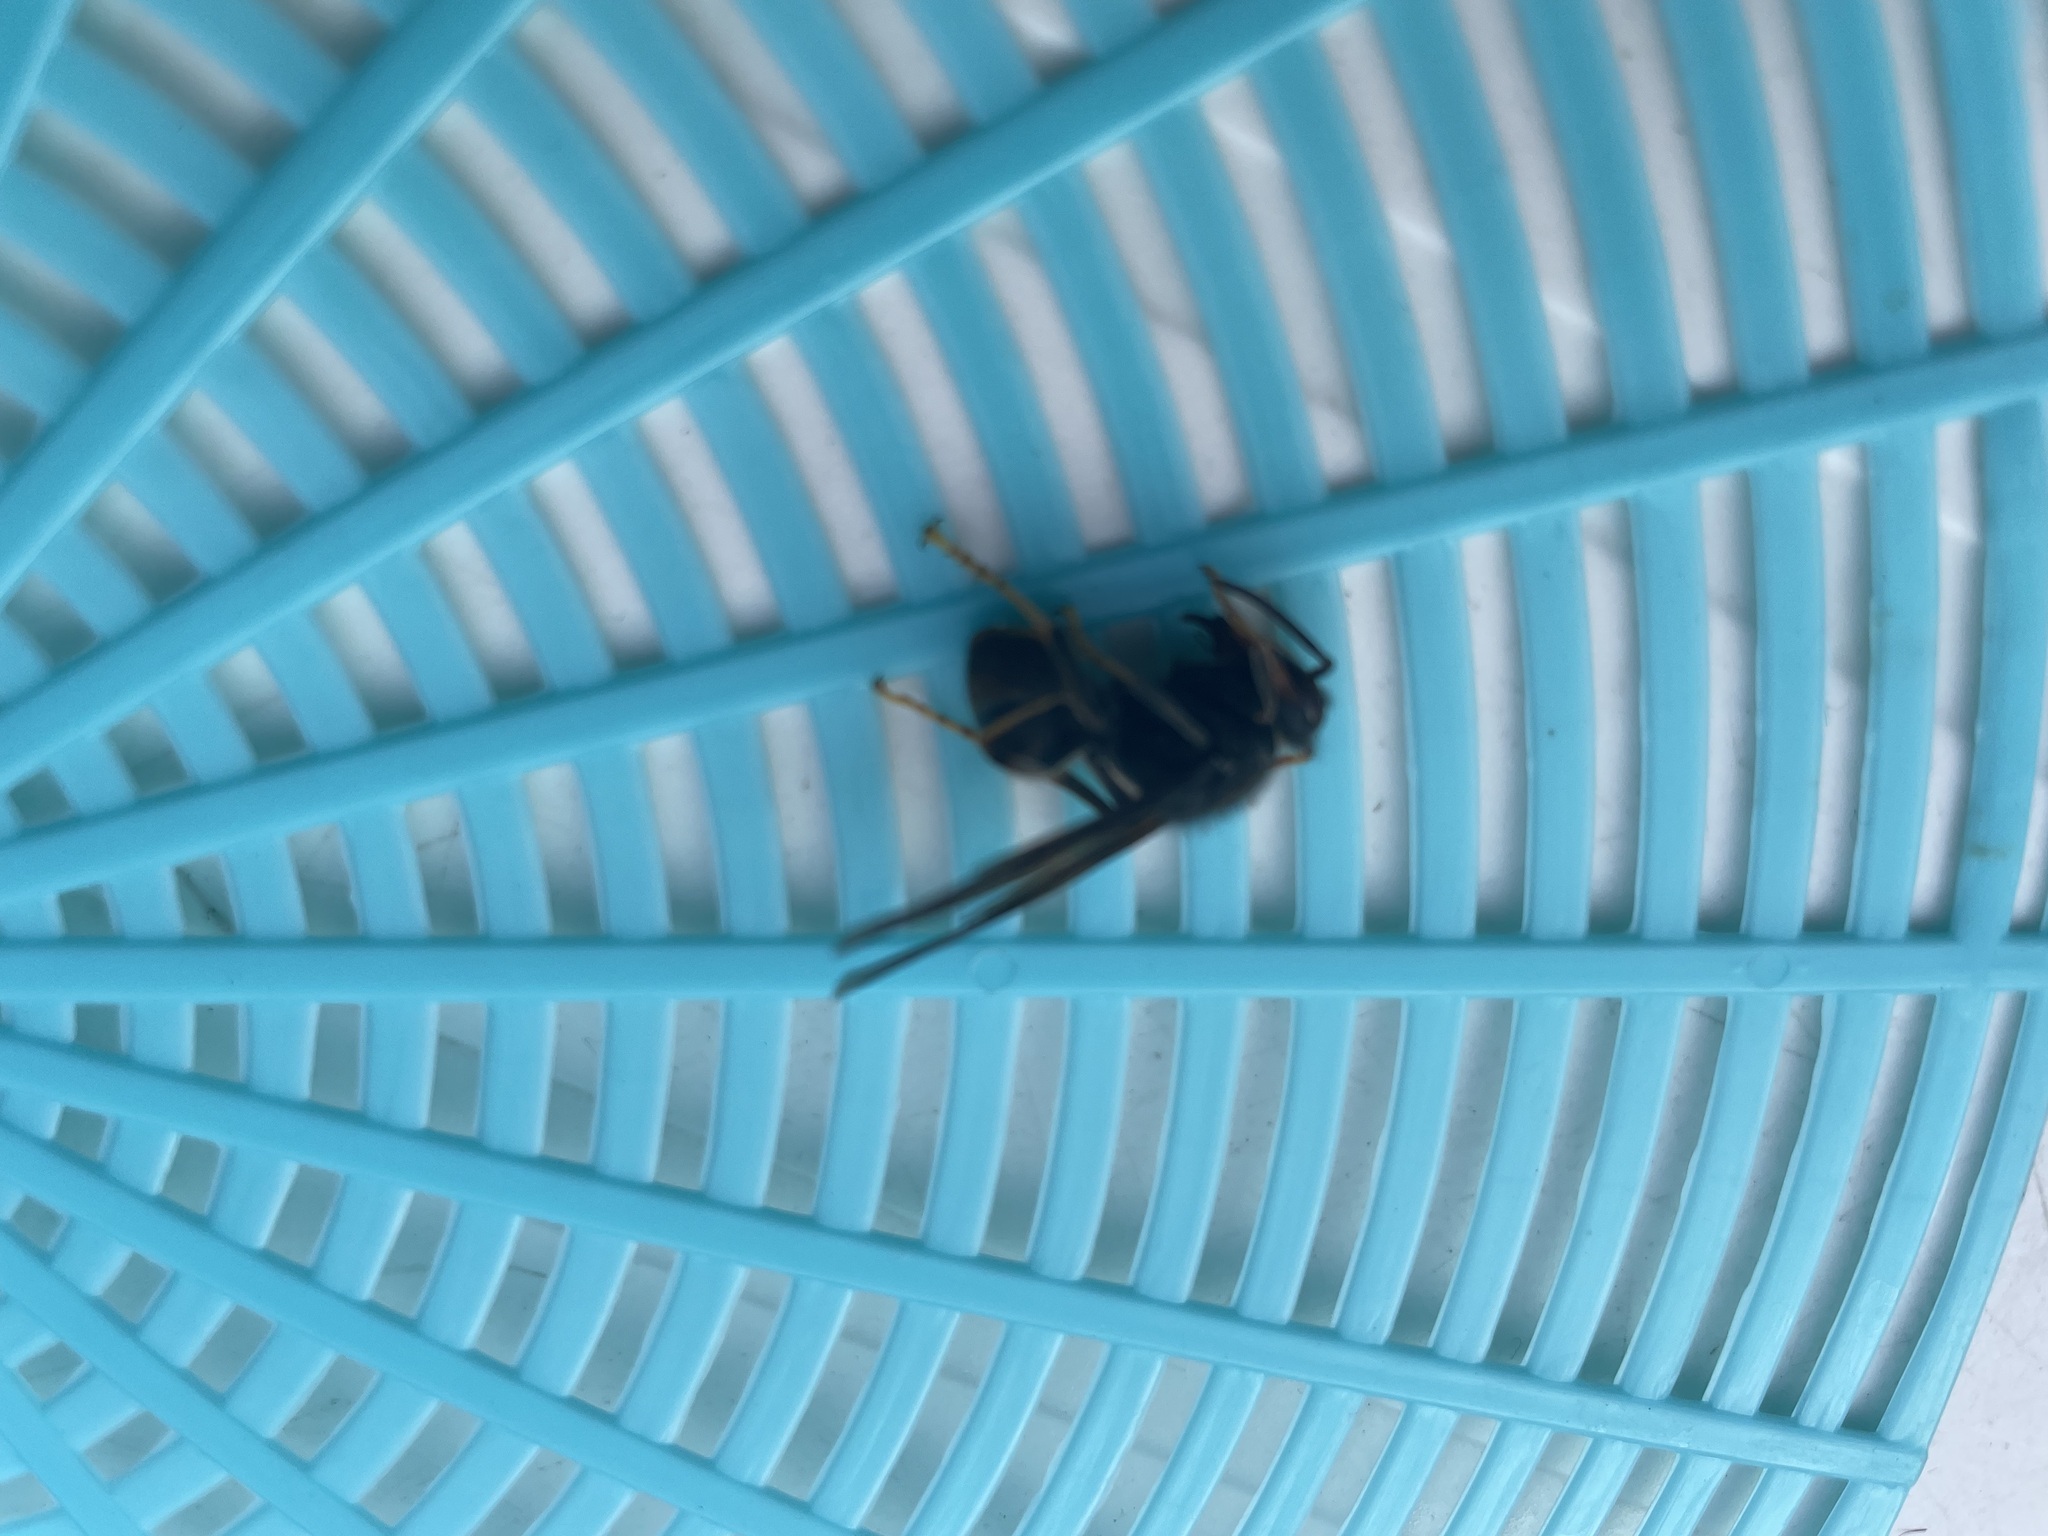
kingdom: Animalia
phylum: Arthropoda
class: Insecta
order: Hymenoptera
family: Vespidae
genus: Vespa
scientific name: Vespa velutina
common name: Asian hornet
